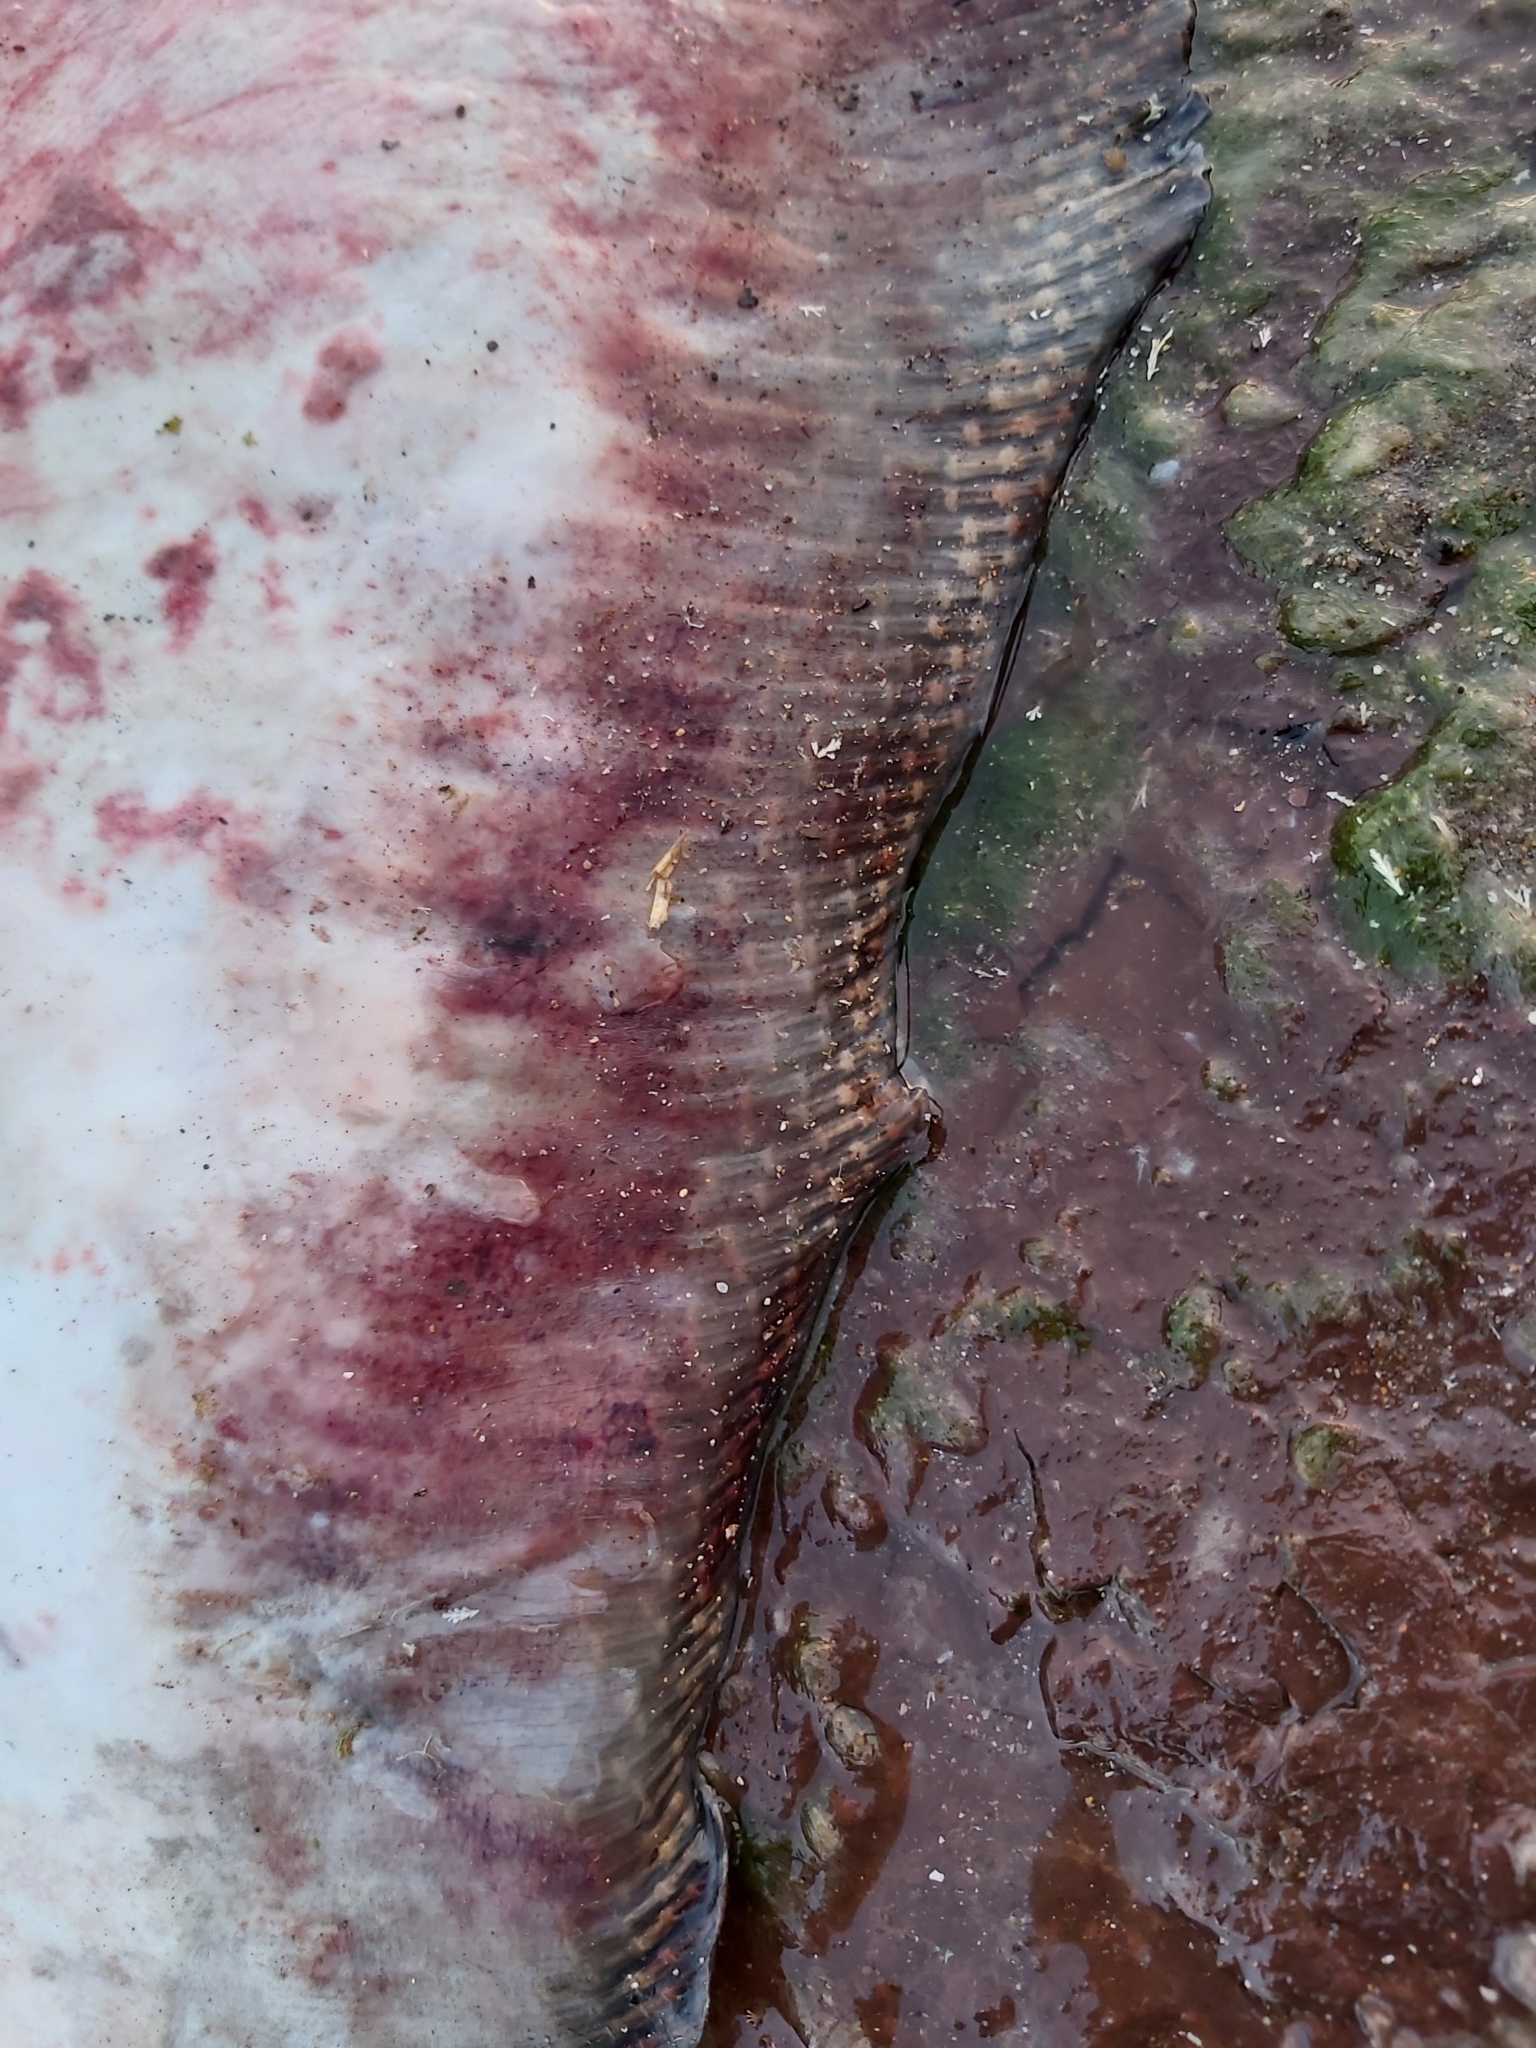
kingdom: Animalia
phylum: Chordata
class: Elasmobranchii
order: Myliobatiformes
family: Dasyatidae
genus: Bathytoshia
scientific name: Bathytoshia brevicaudata
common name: Short-tail stingray
